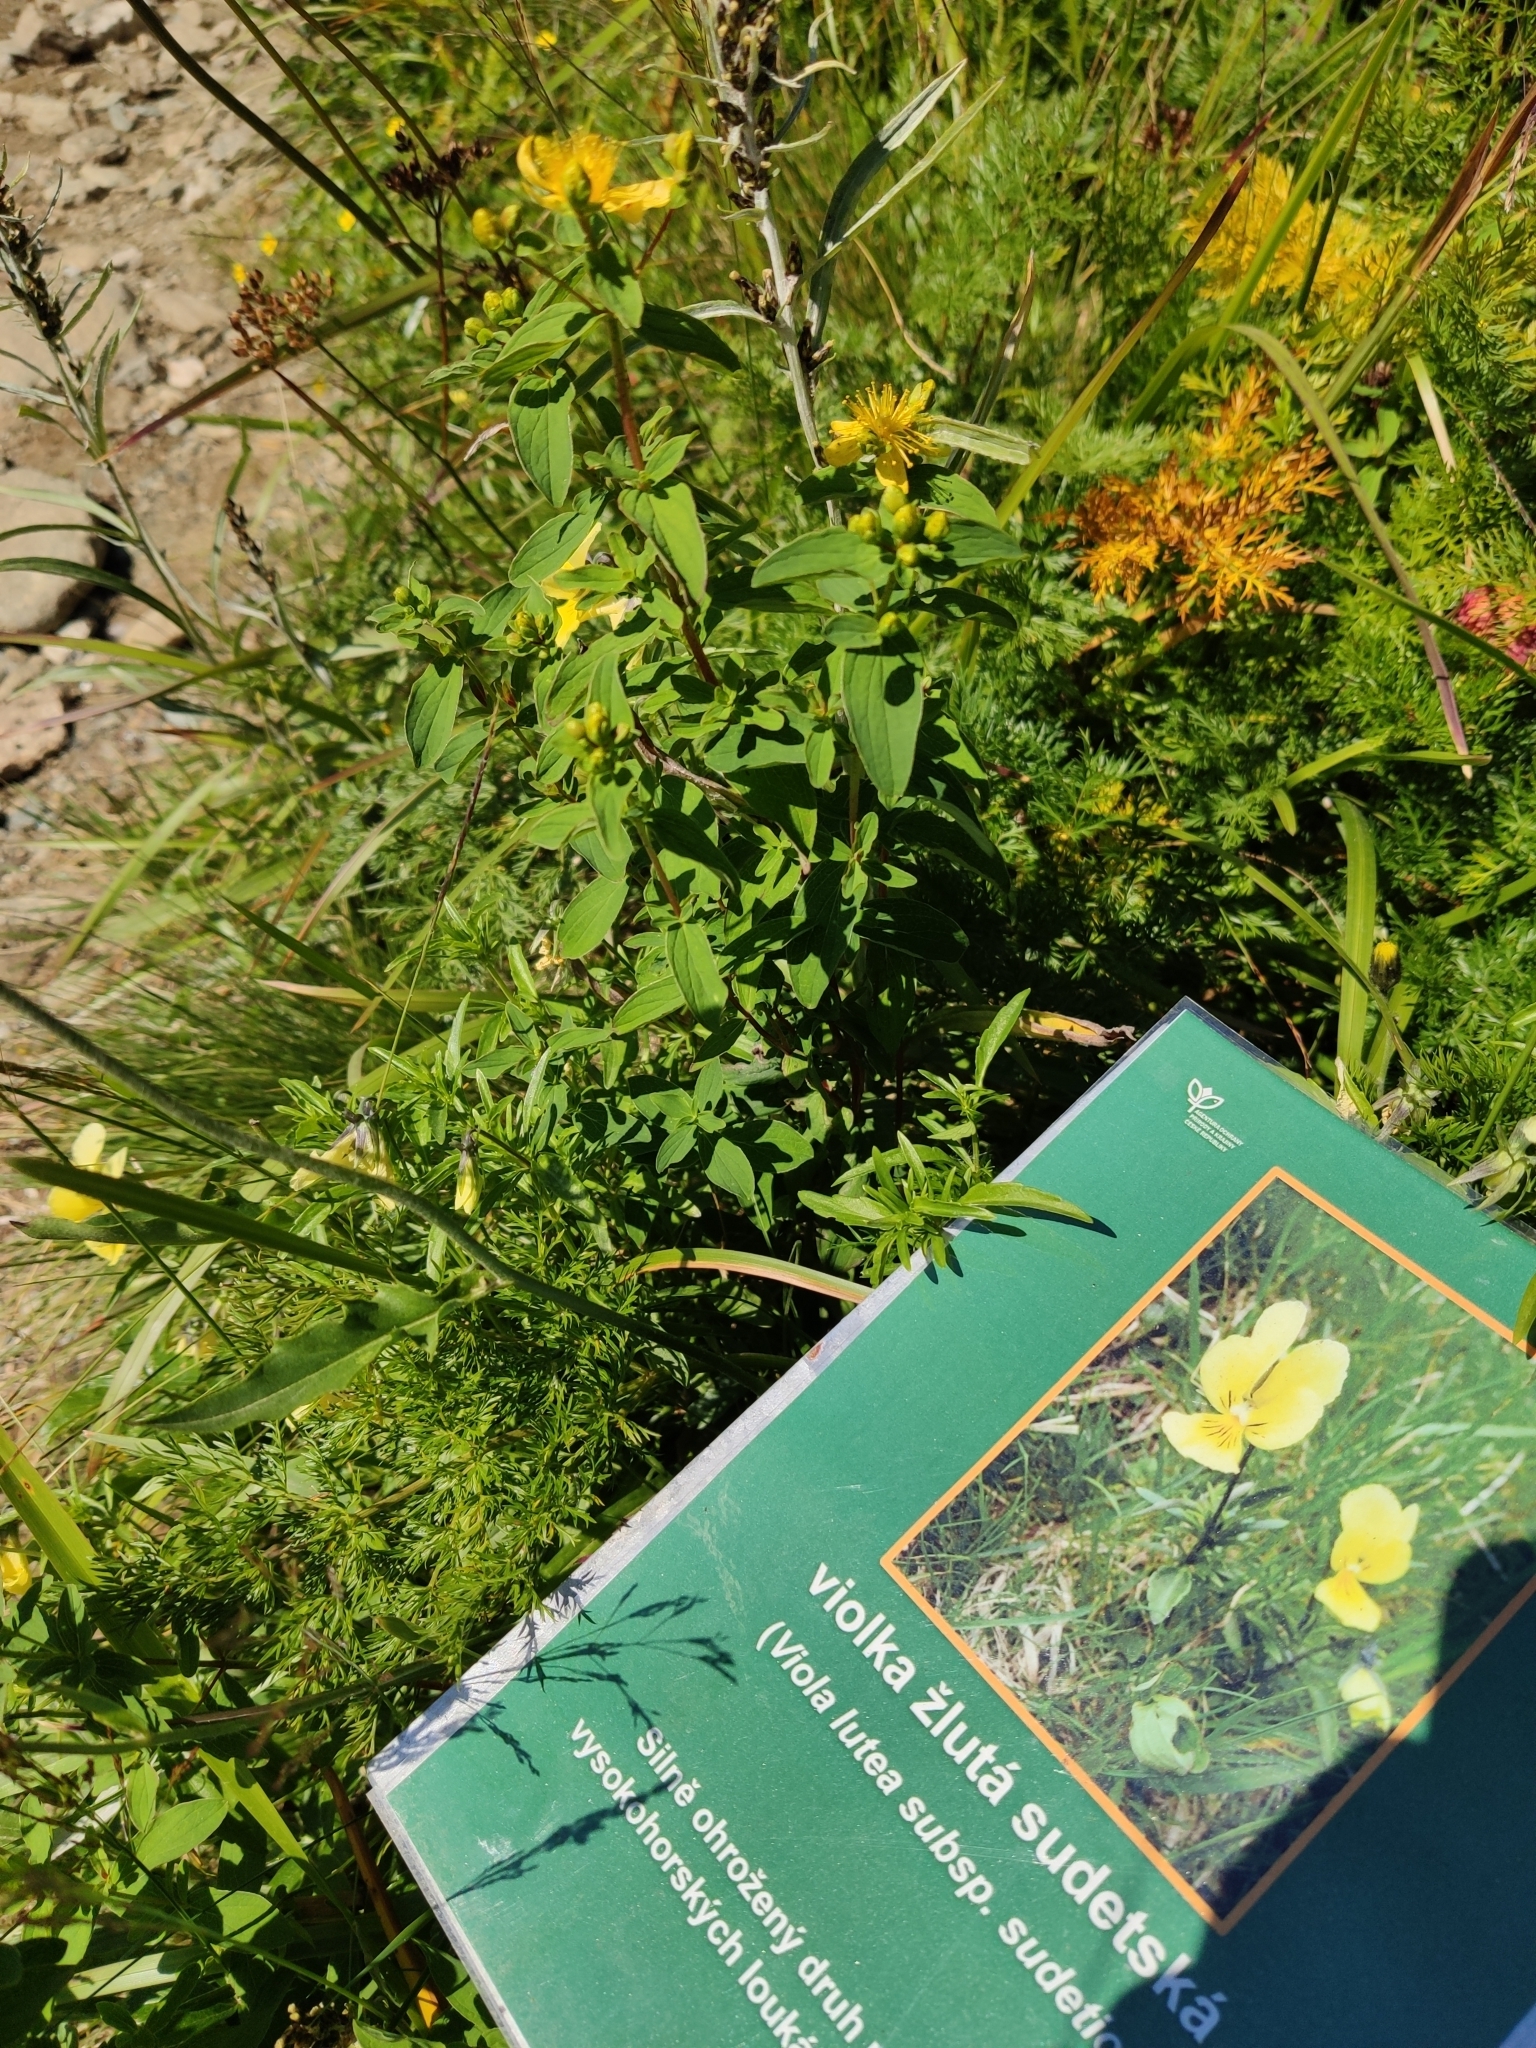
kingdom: Plantae
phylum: Tracheophyta
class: Magnoliopsida
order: Malpighiales
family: Violaceae
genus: Viola
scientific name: Viola lutea
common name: Mountain pansy
